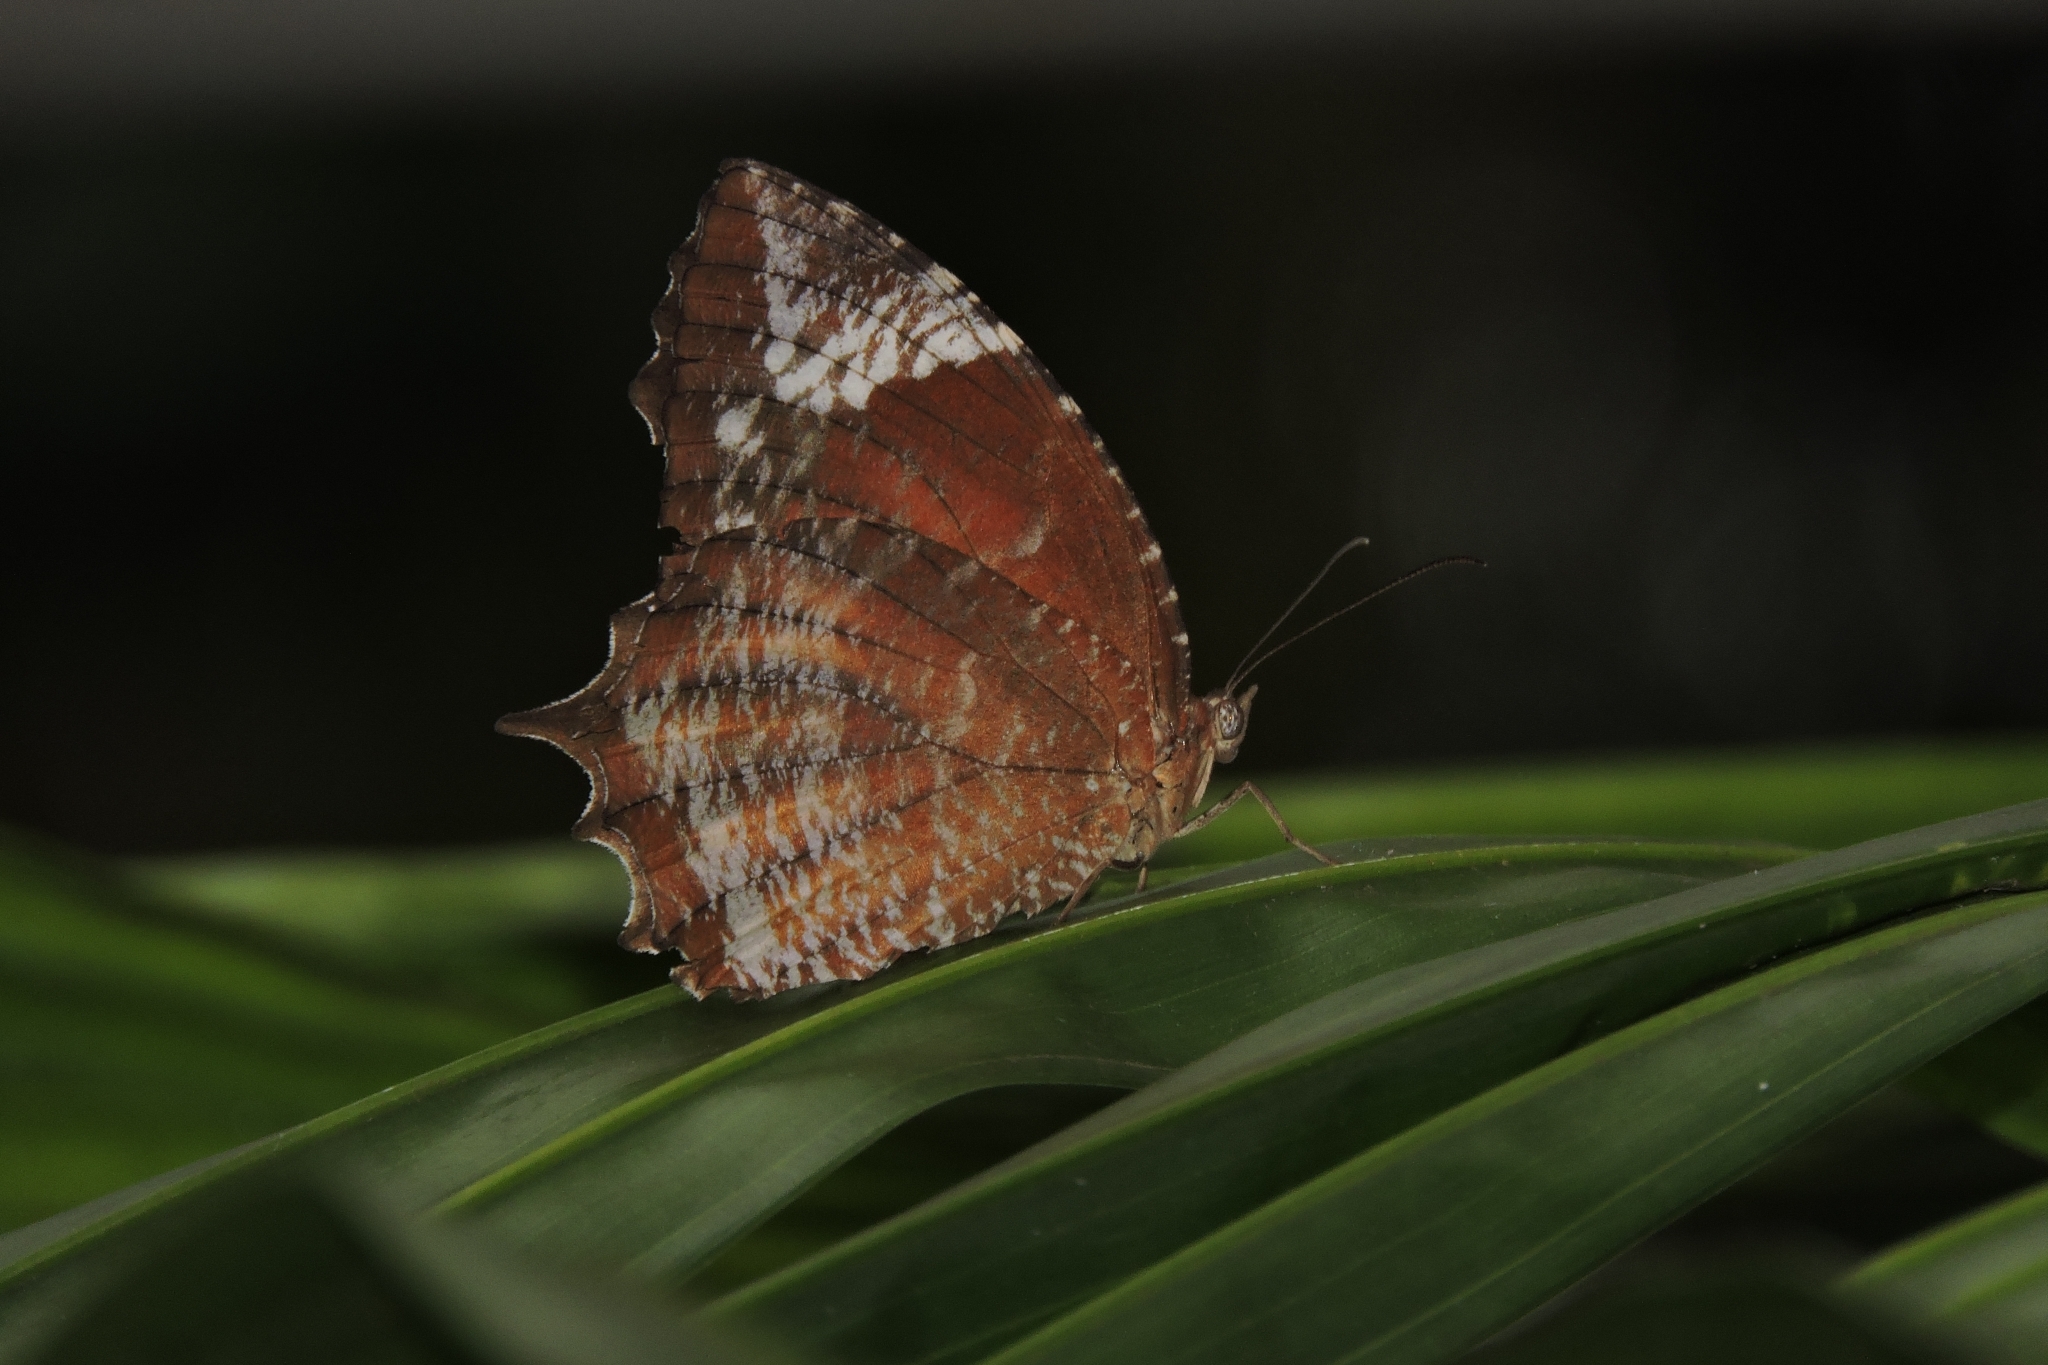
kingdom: Animalia
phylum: Arthropoda
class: Insecta
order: Lepidoptera
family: Nymphalidae
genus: Elymnias
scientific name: Elymnias caudata
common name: Tailed palmfly
